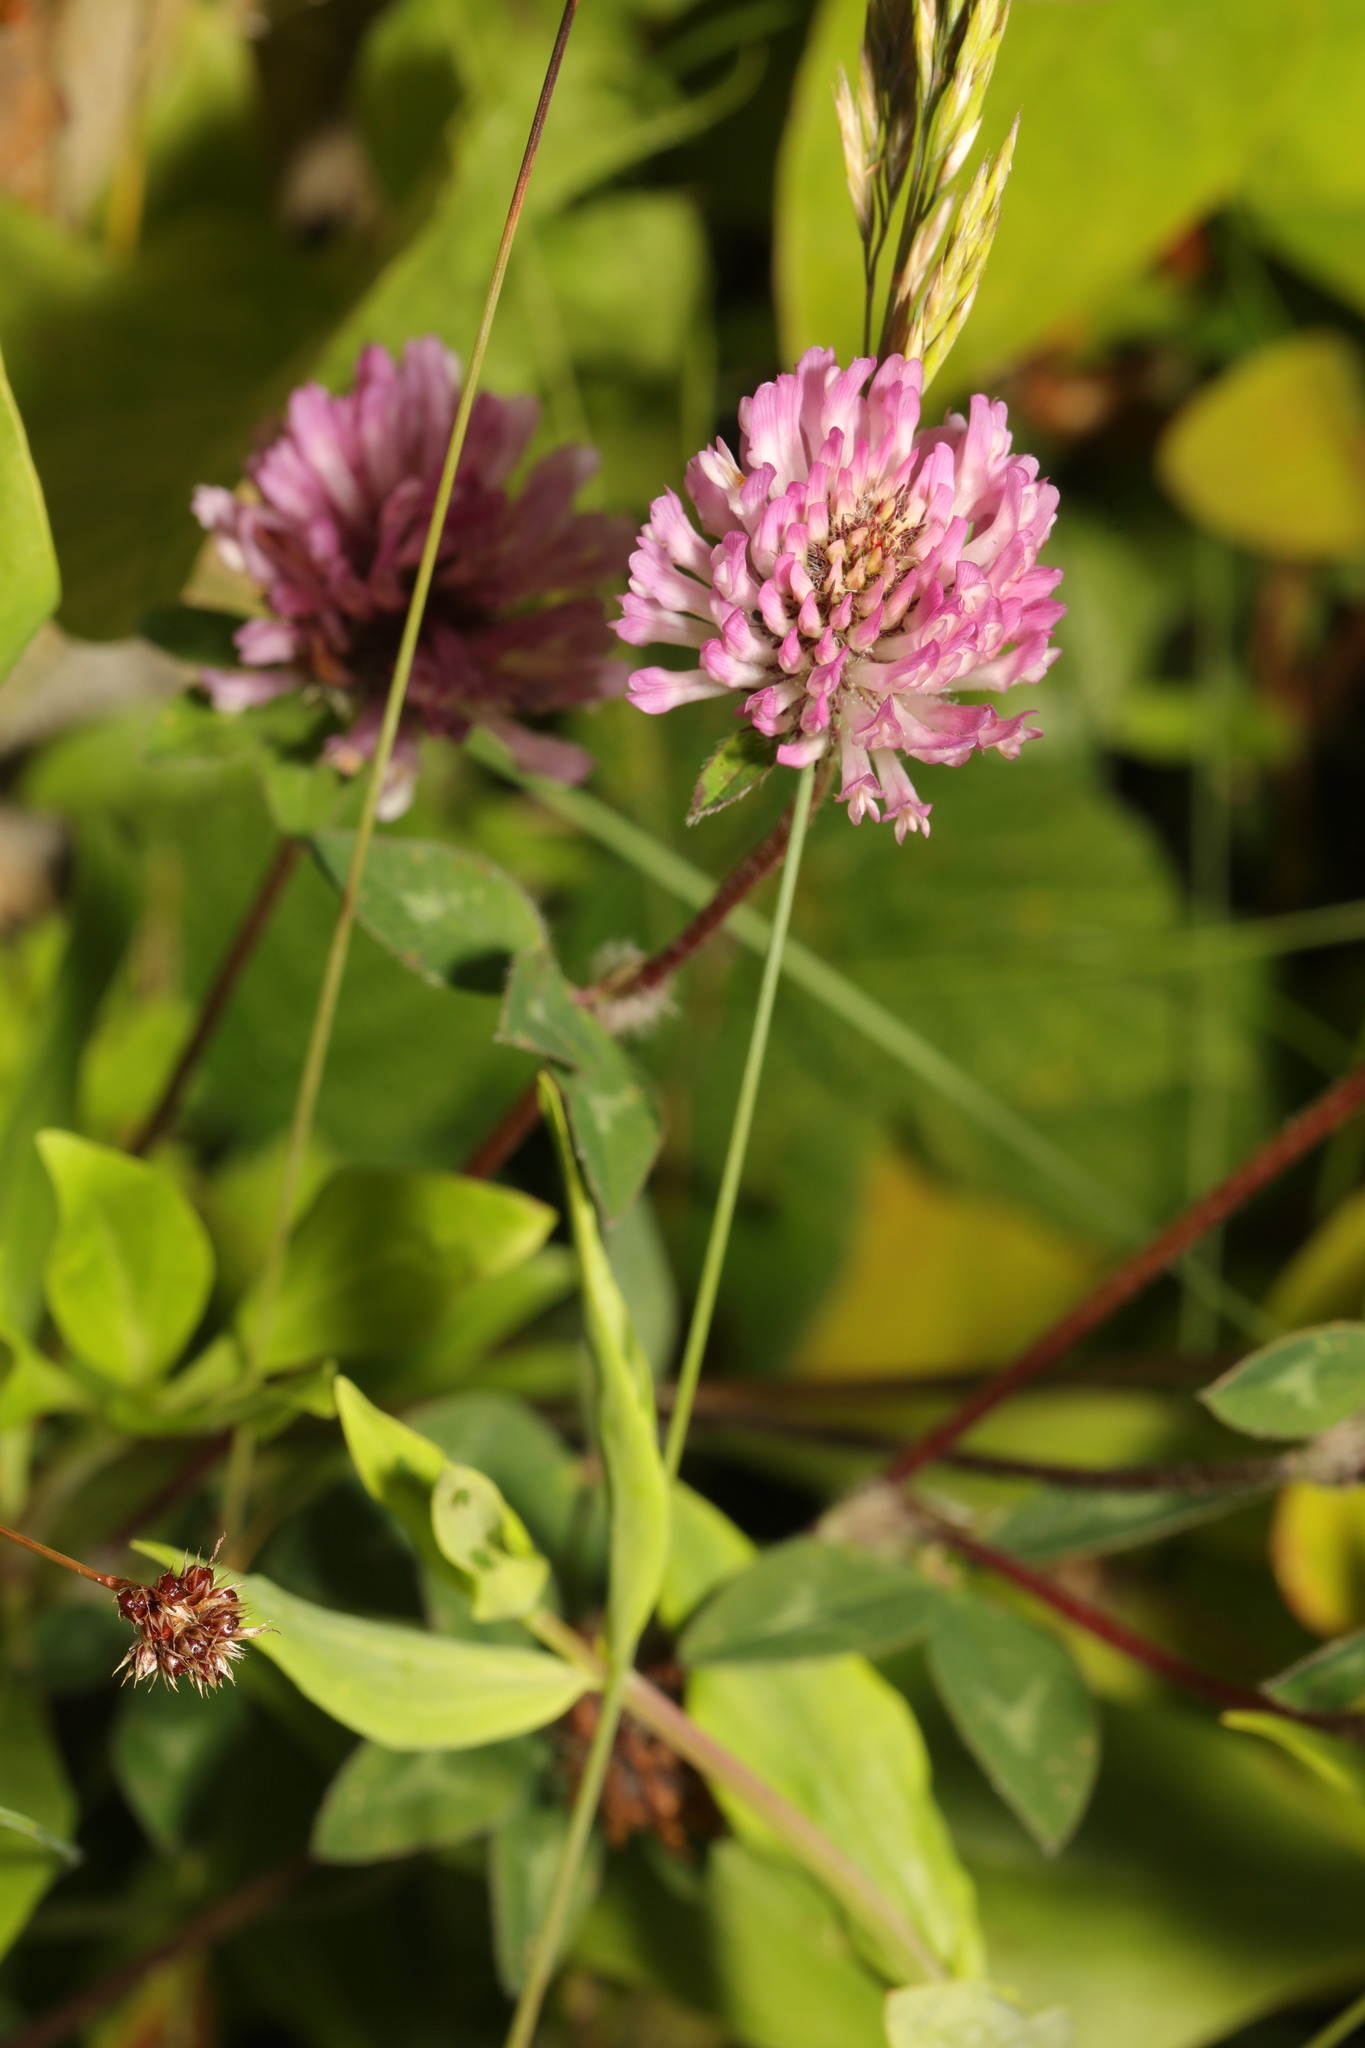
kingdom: Plantae
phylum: Tracheophyta
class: Magnoliopsida
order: Fabales
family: Fabaceae
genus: Trifolium
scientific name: Trifolium pratense
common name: Red clover
